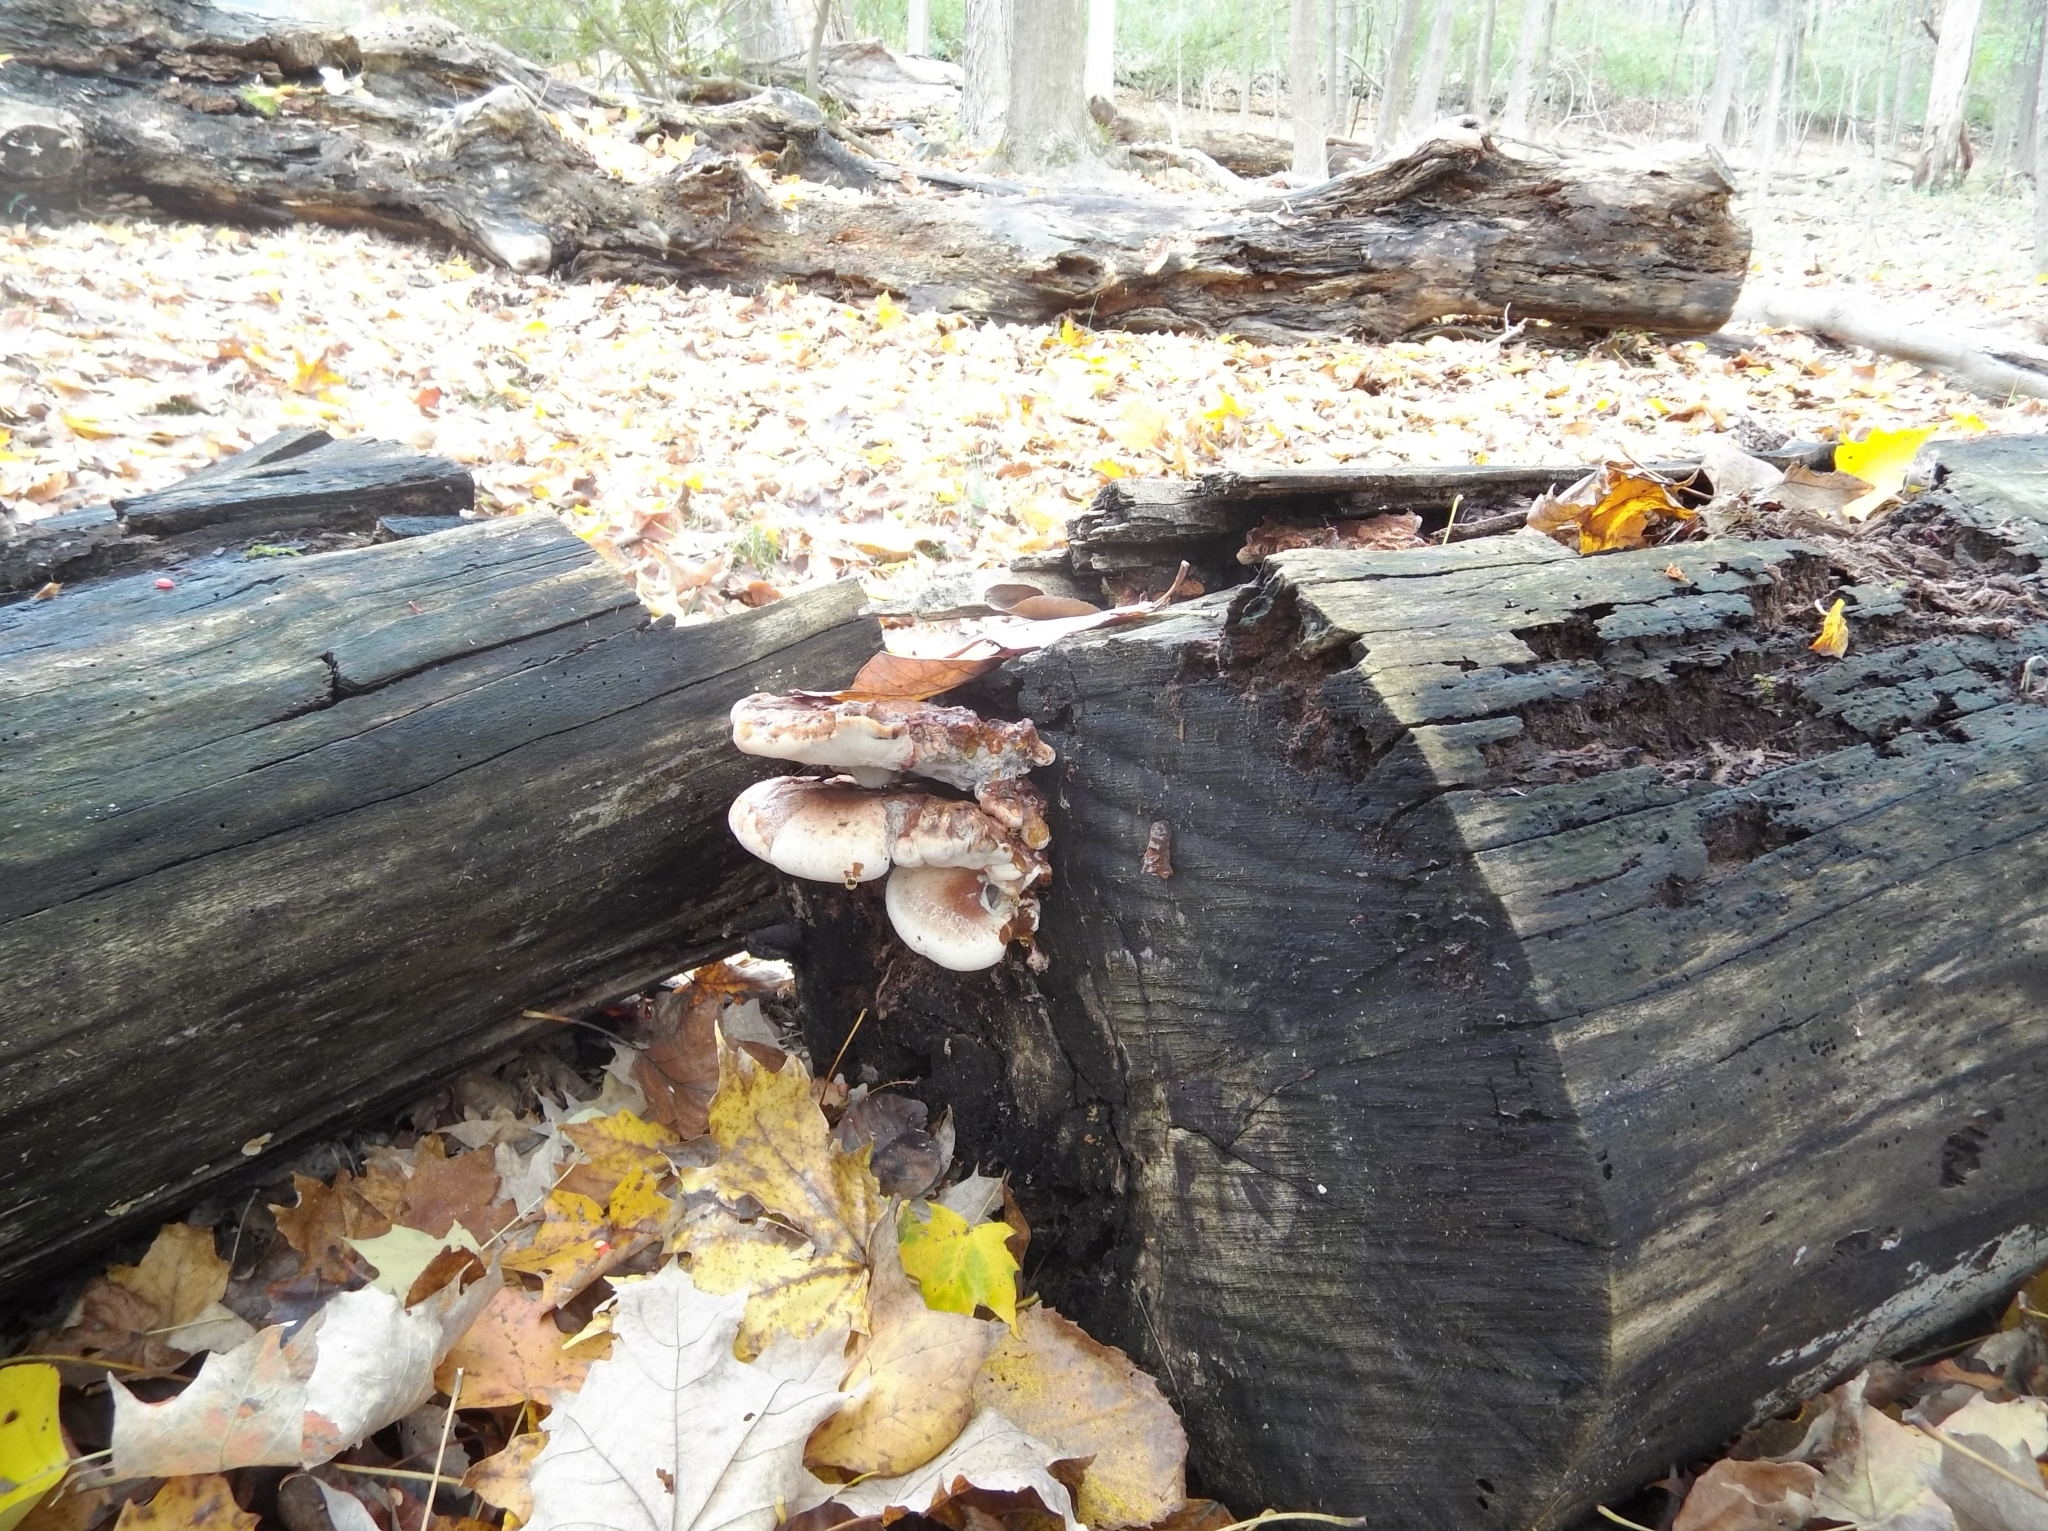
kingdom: Fungi
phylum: Basidiomycota
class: Agaricomycetes
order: Polyporales
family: Ischnodermataceae
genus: Ischnoderma
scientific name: Ischnoderma resinosum
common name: Resinous polypore
